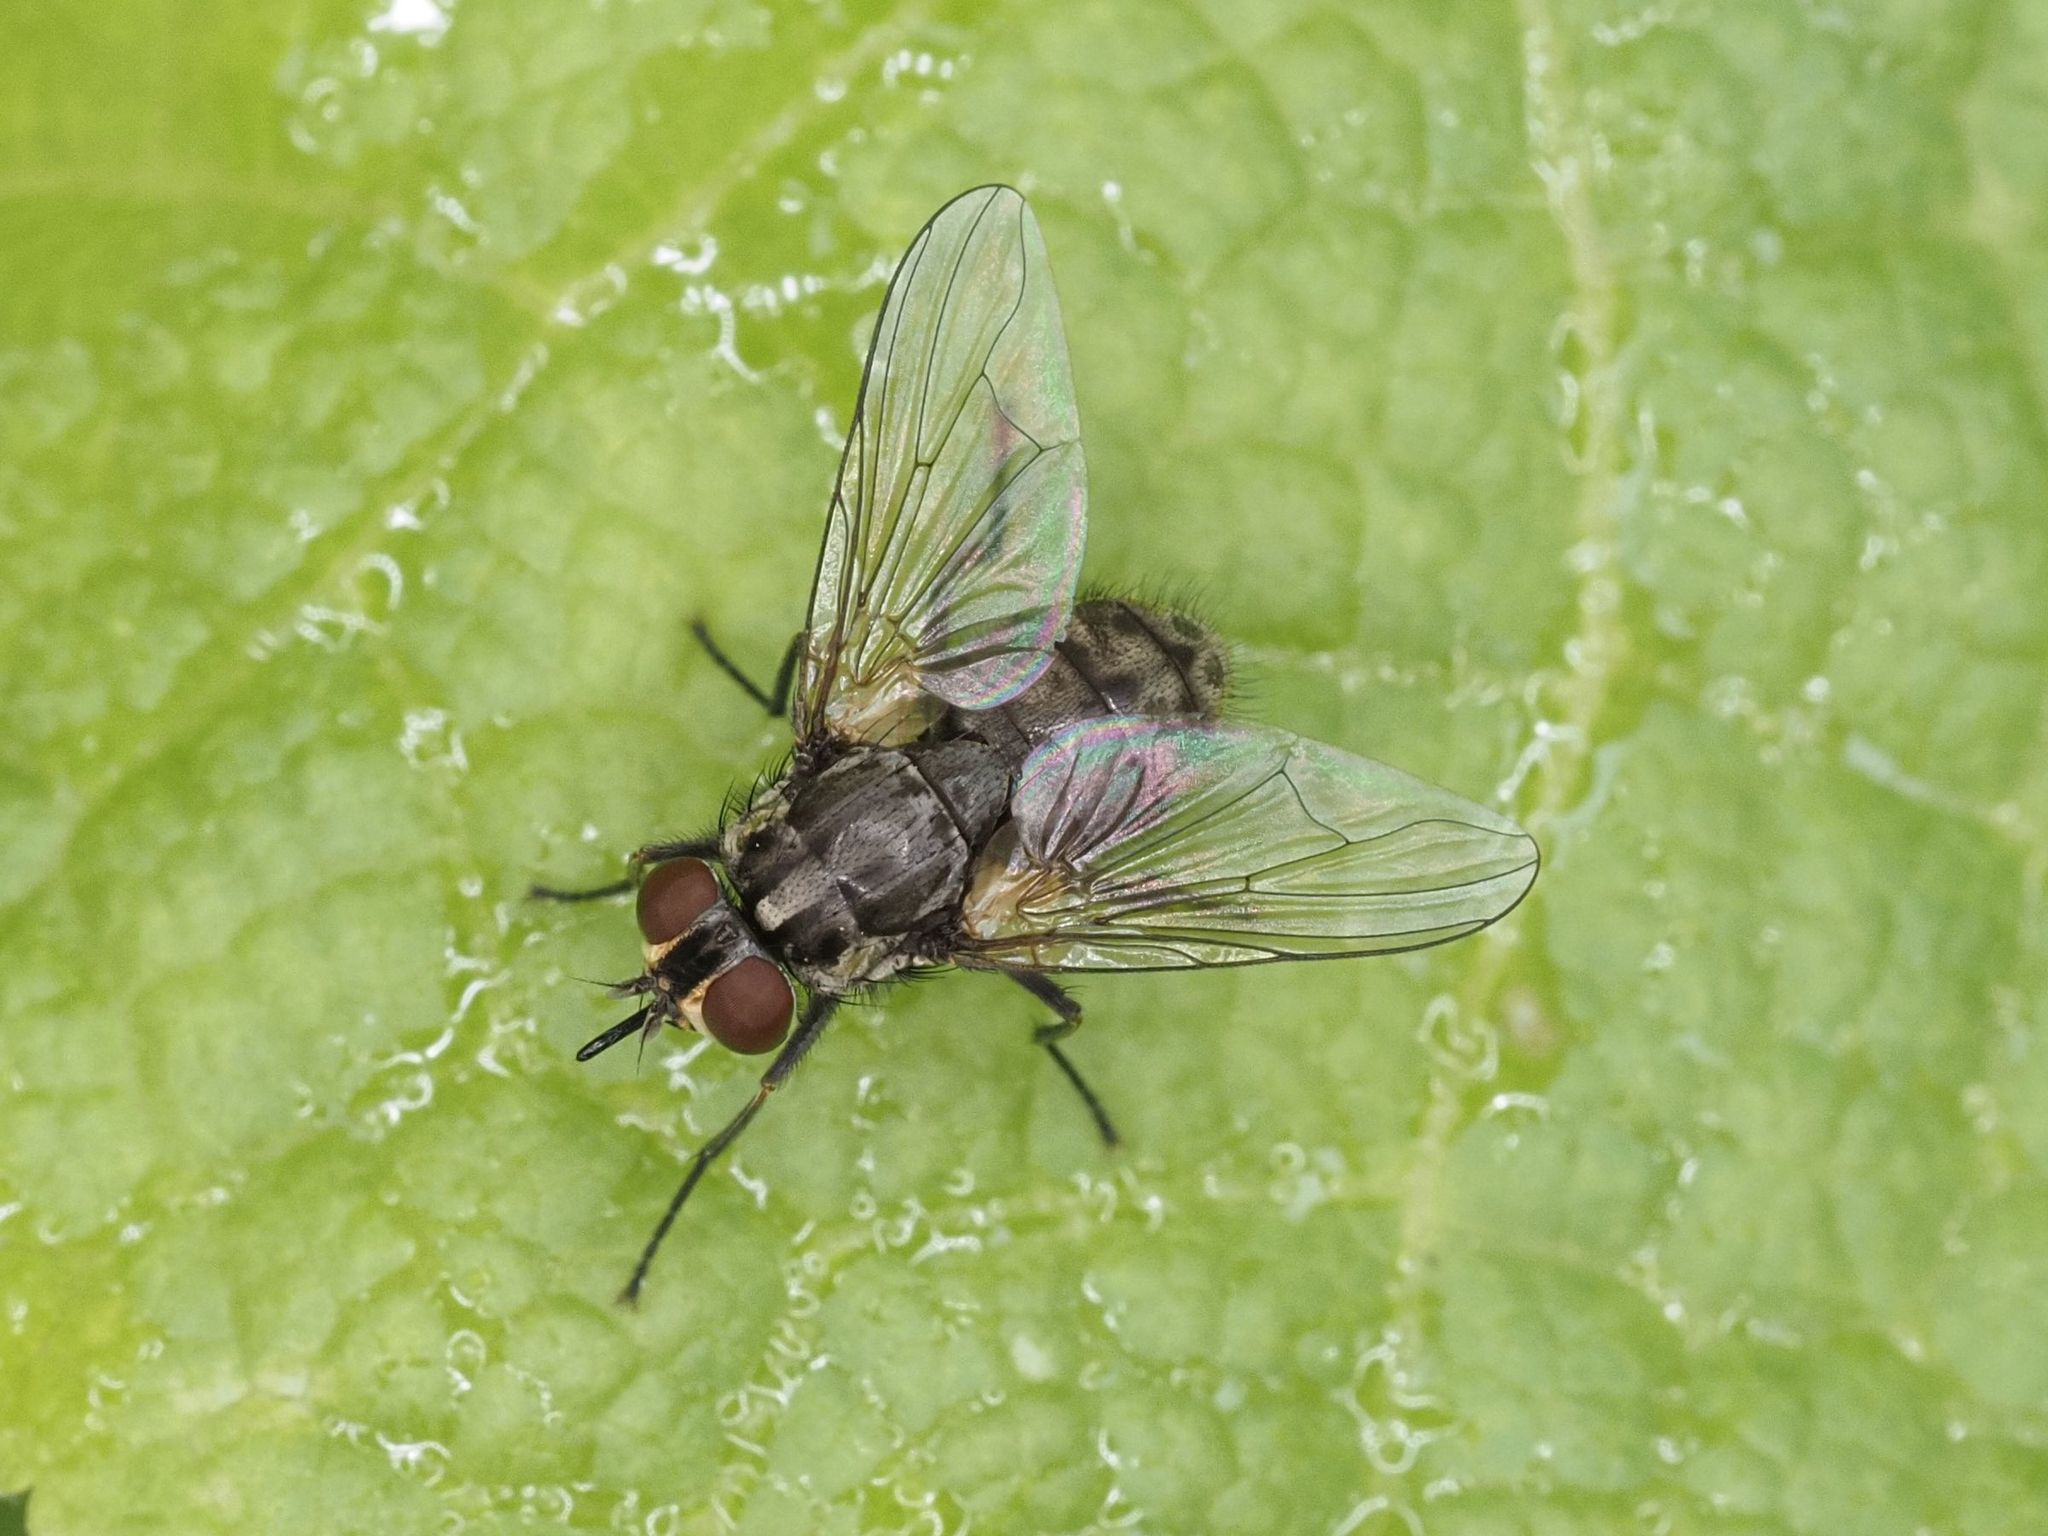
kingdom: Animalia
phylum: Arthropoda
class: Insecta
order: Diptera
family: Muscidae
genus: Stomoxys
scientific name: Stomoxys calcitrans
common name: Stable fly
